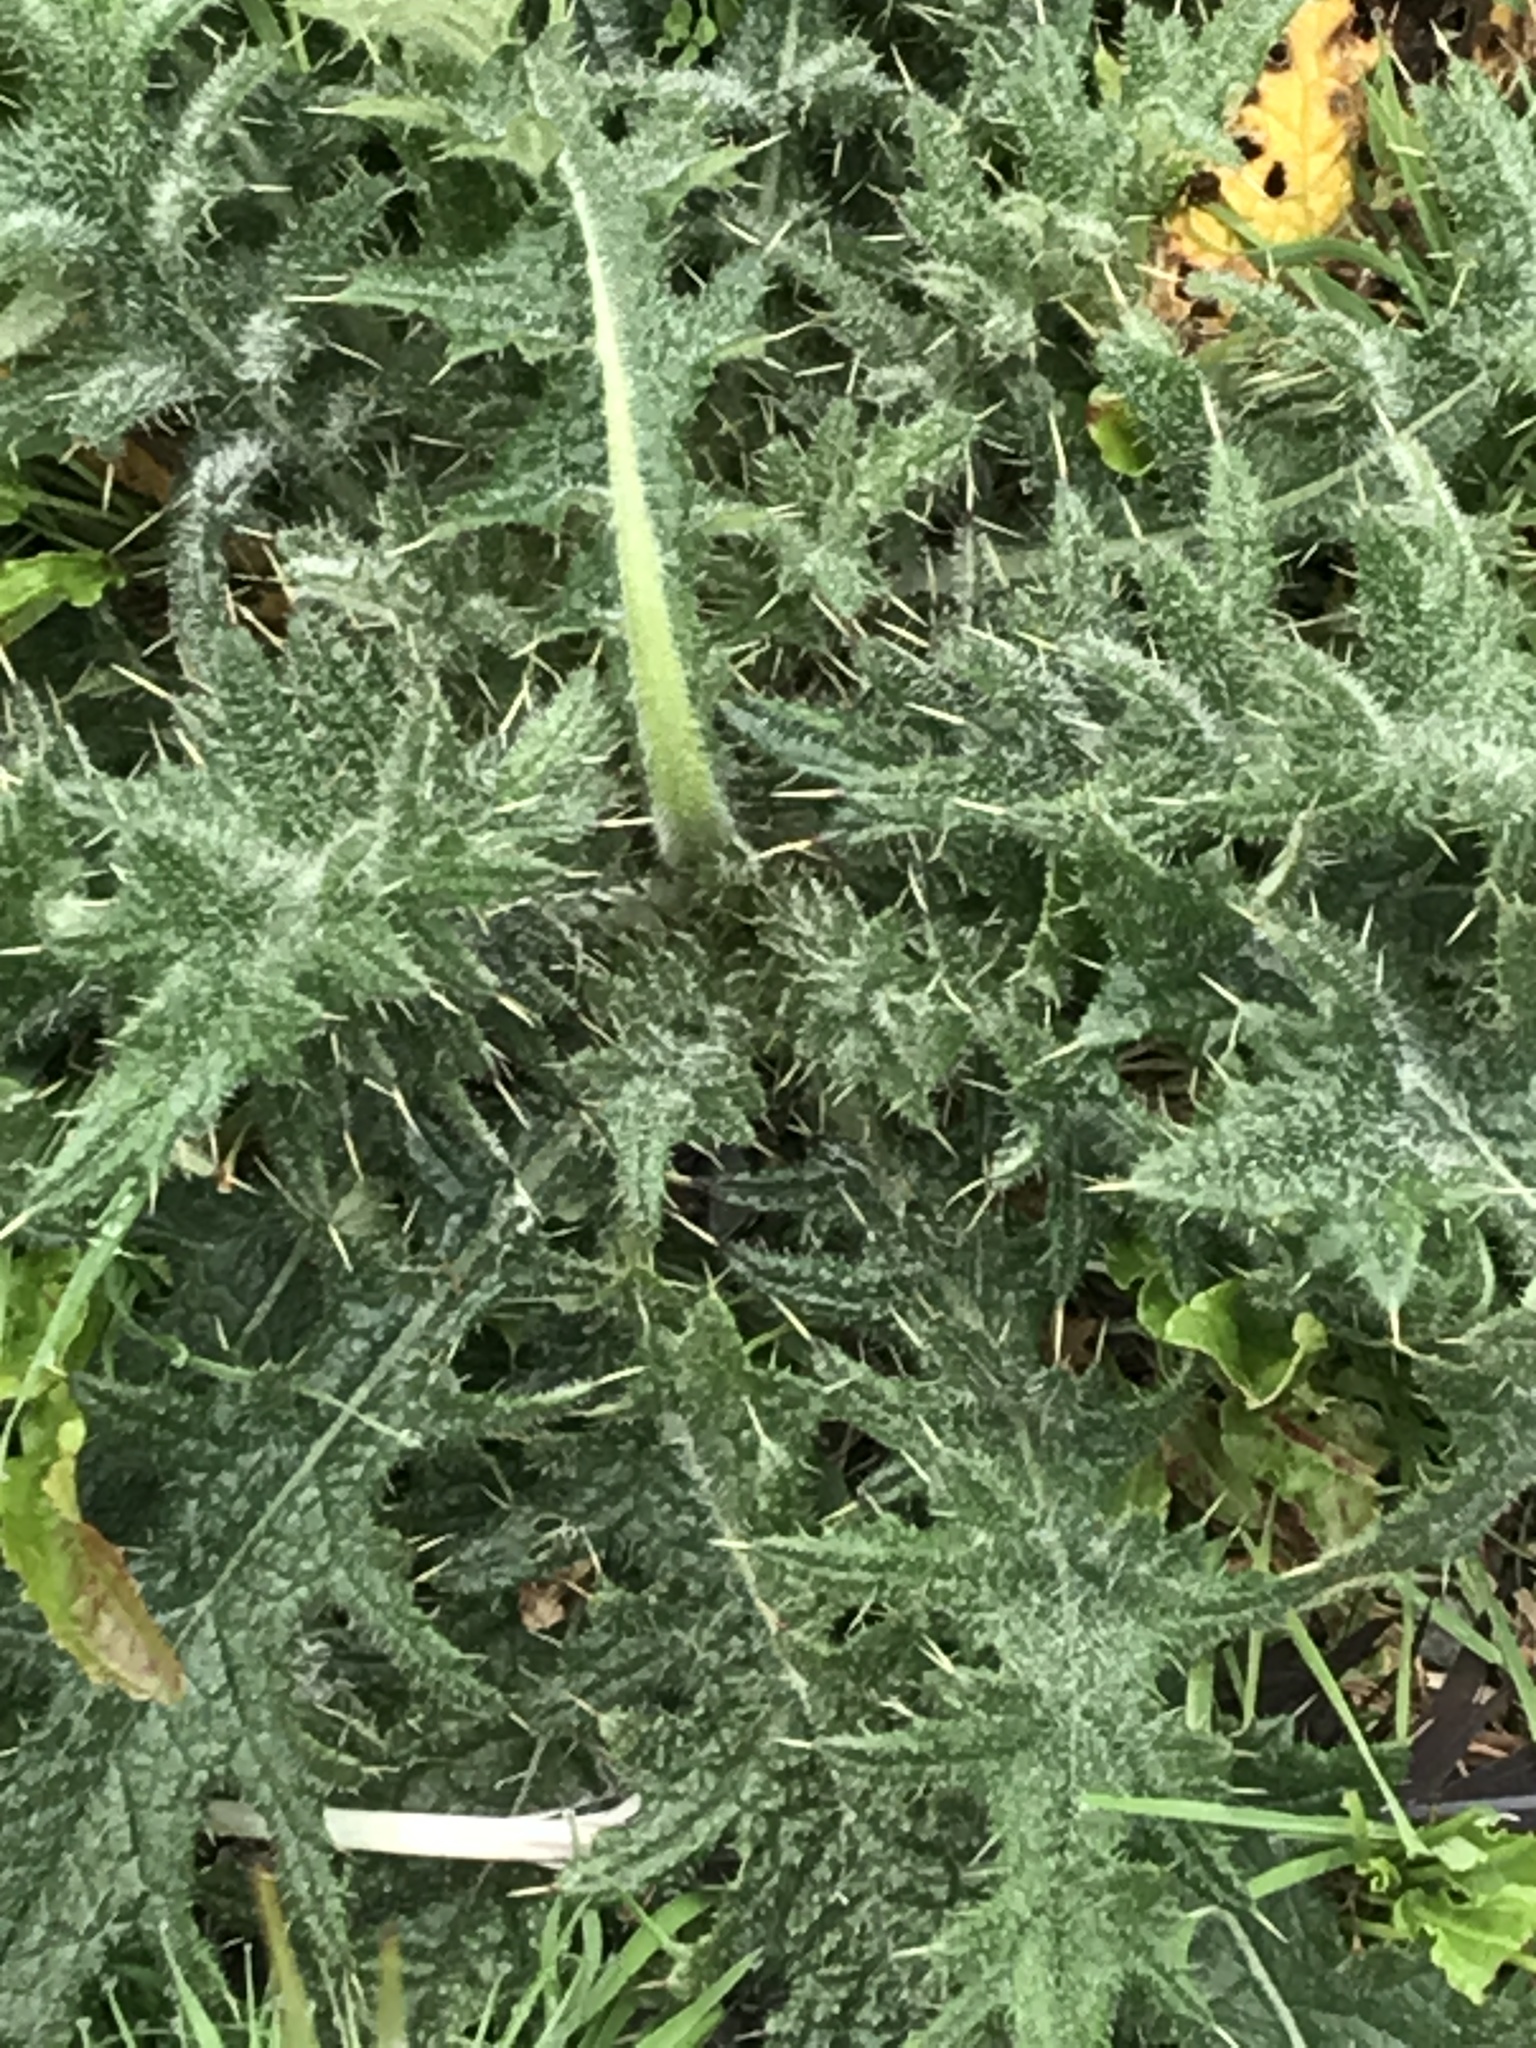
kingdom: Plantae
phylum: Tracheophyta
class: Magnoliopsida
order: Asterales
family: Asteraceae
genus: Cirsium
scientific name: Cirsium vulgare
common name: Bull thistle
